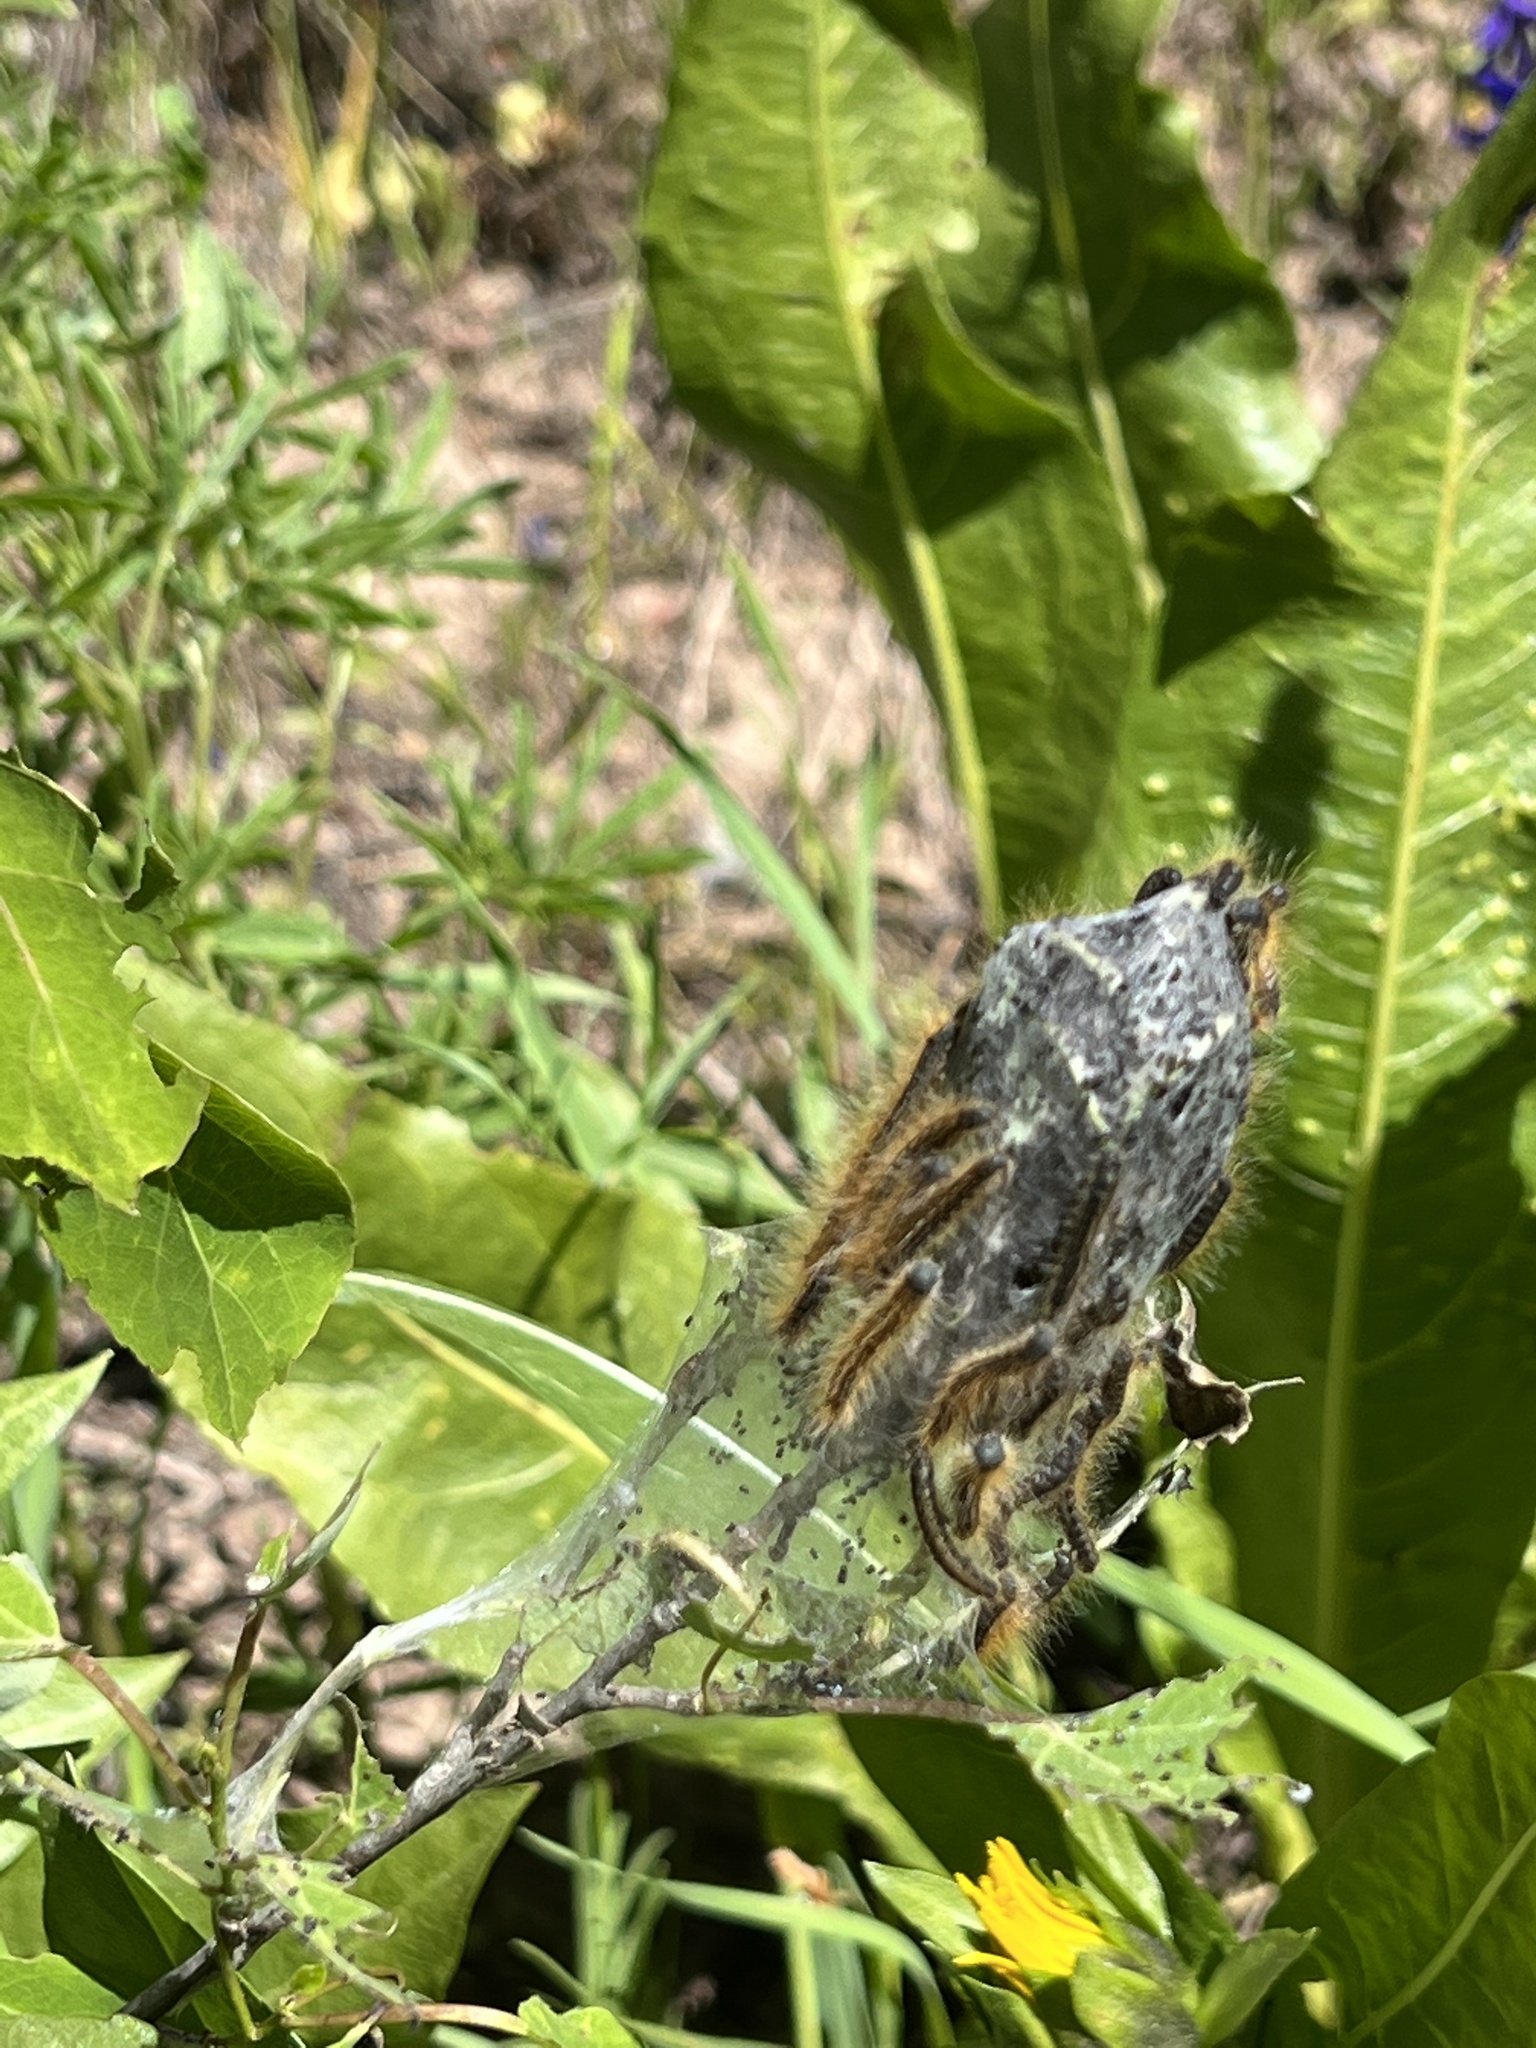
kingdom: Animalia
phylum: Arthropoda
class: Insecta
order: Lepidoptera
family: Lasiocampidae
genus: Malacosoma
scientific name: Malacosoma californica
